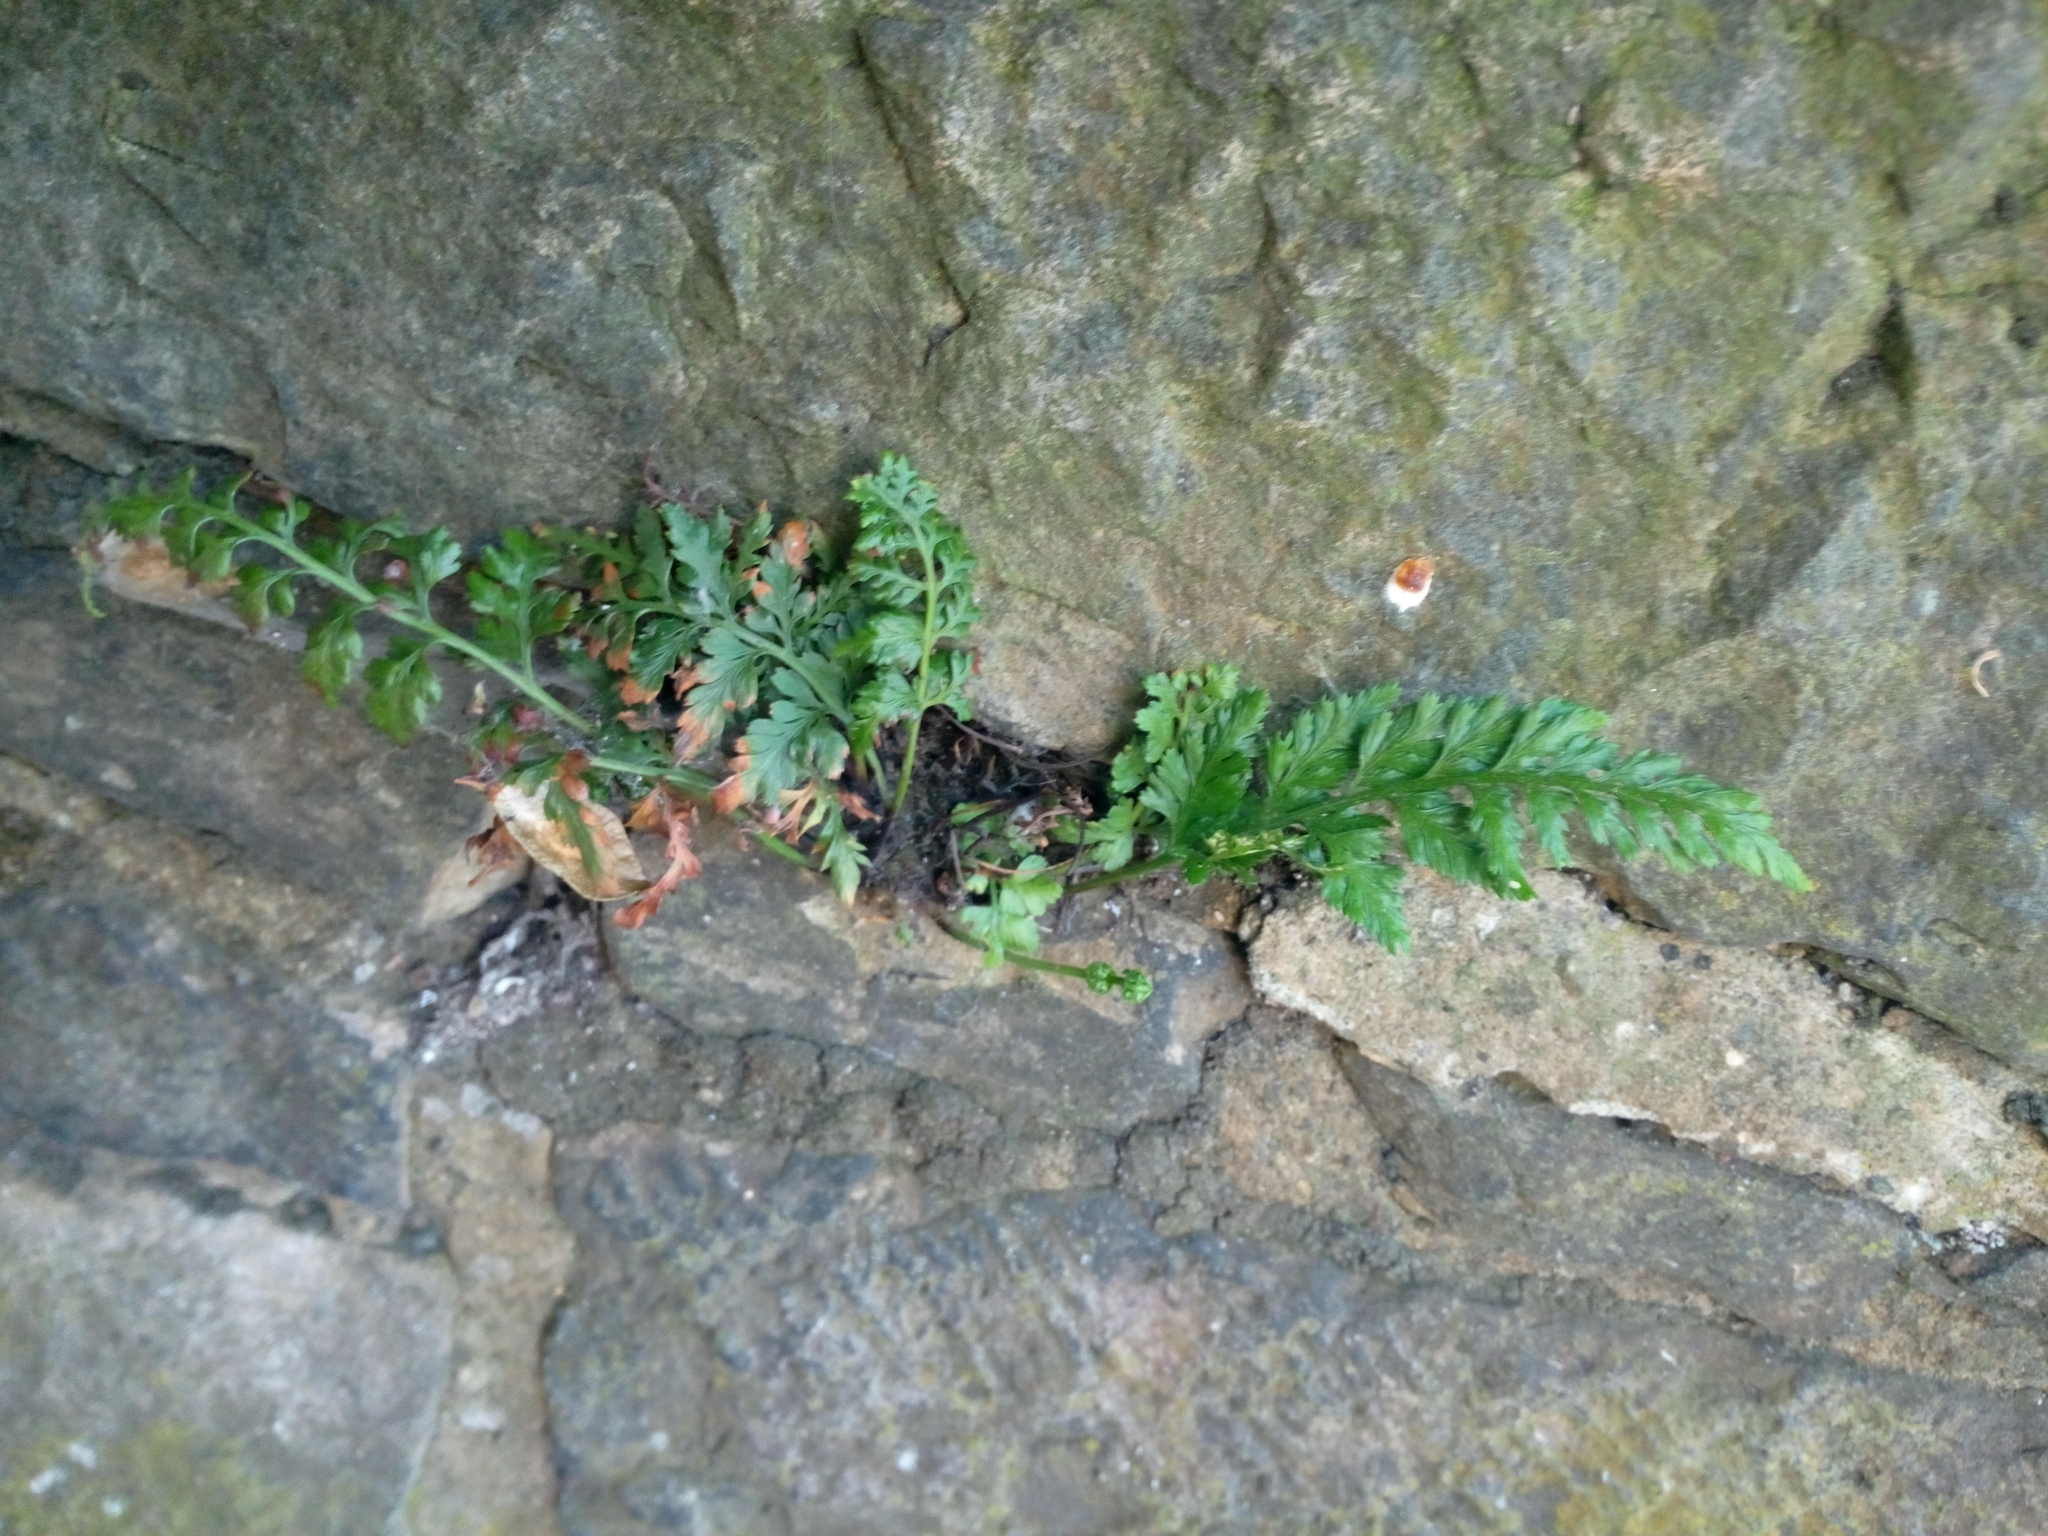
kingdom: Plantae
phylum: Tracheophyta
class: Polypodiopsida
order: Polypodiales
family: Aspleniaceae
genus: Asplenium
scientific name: Asplenium adiantum-nigrum
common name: Black spleenwort
